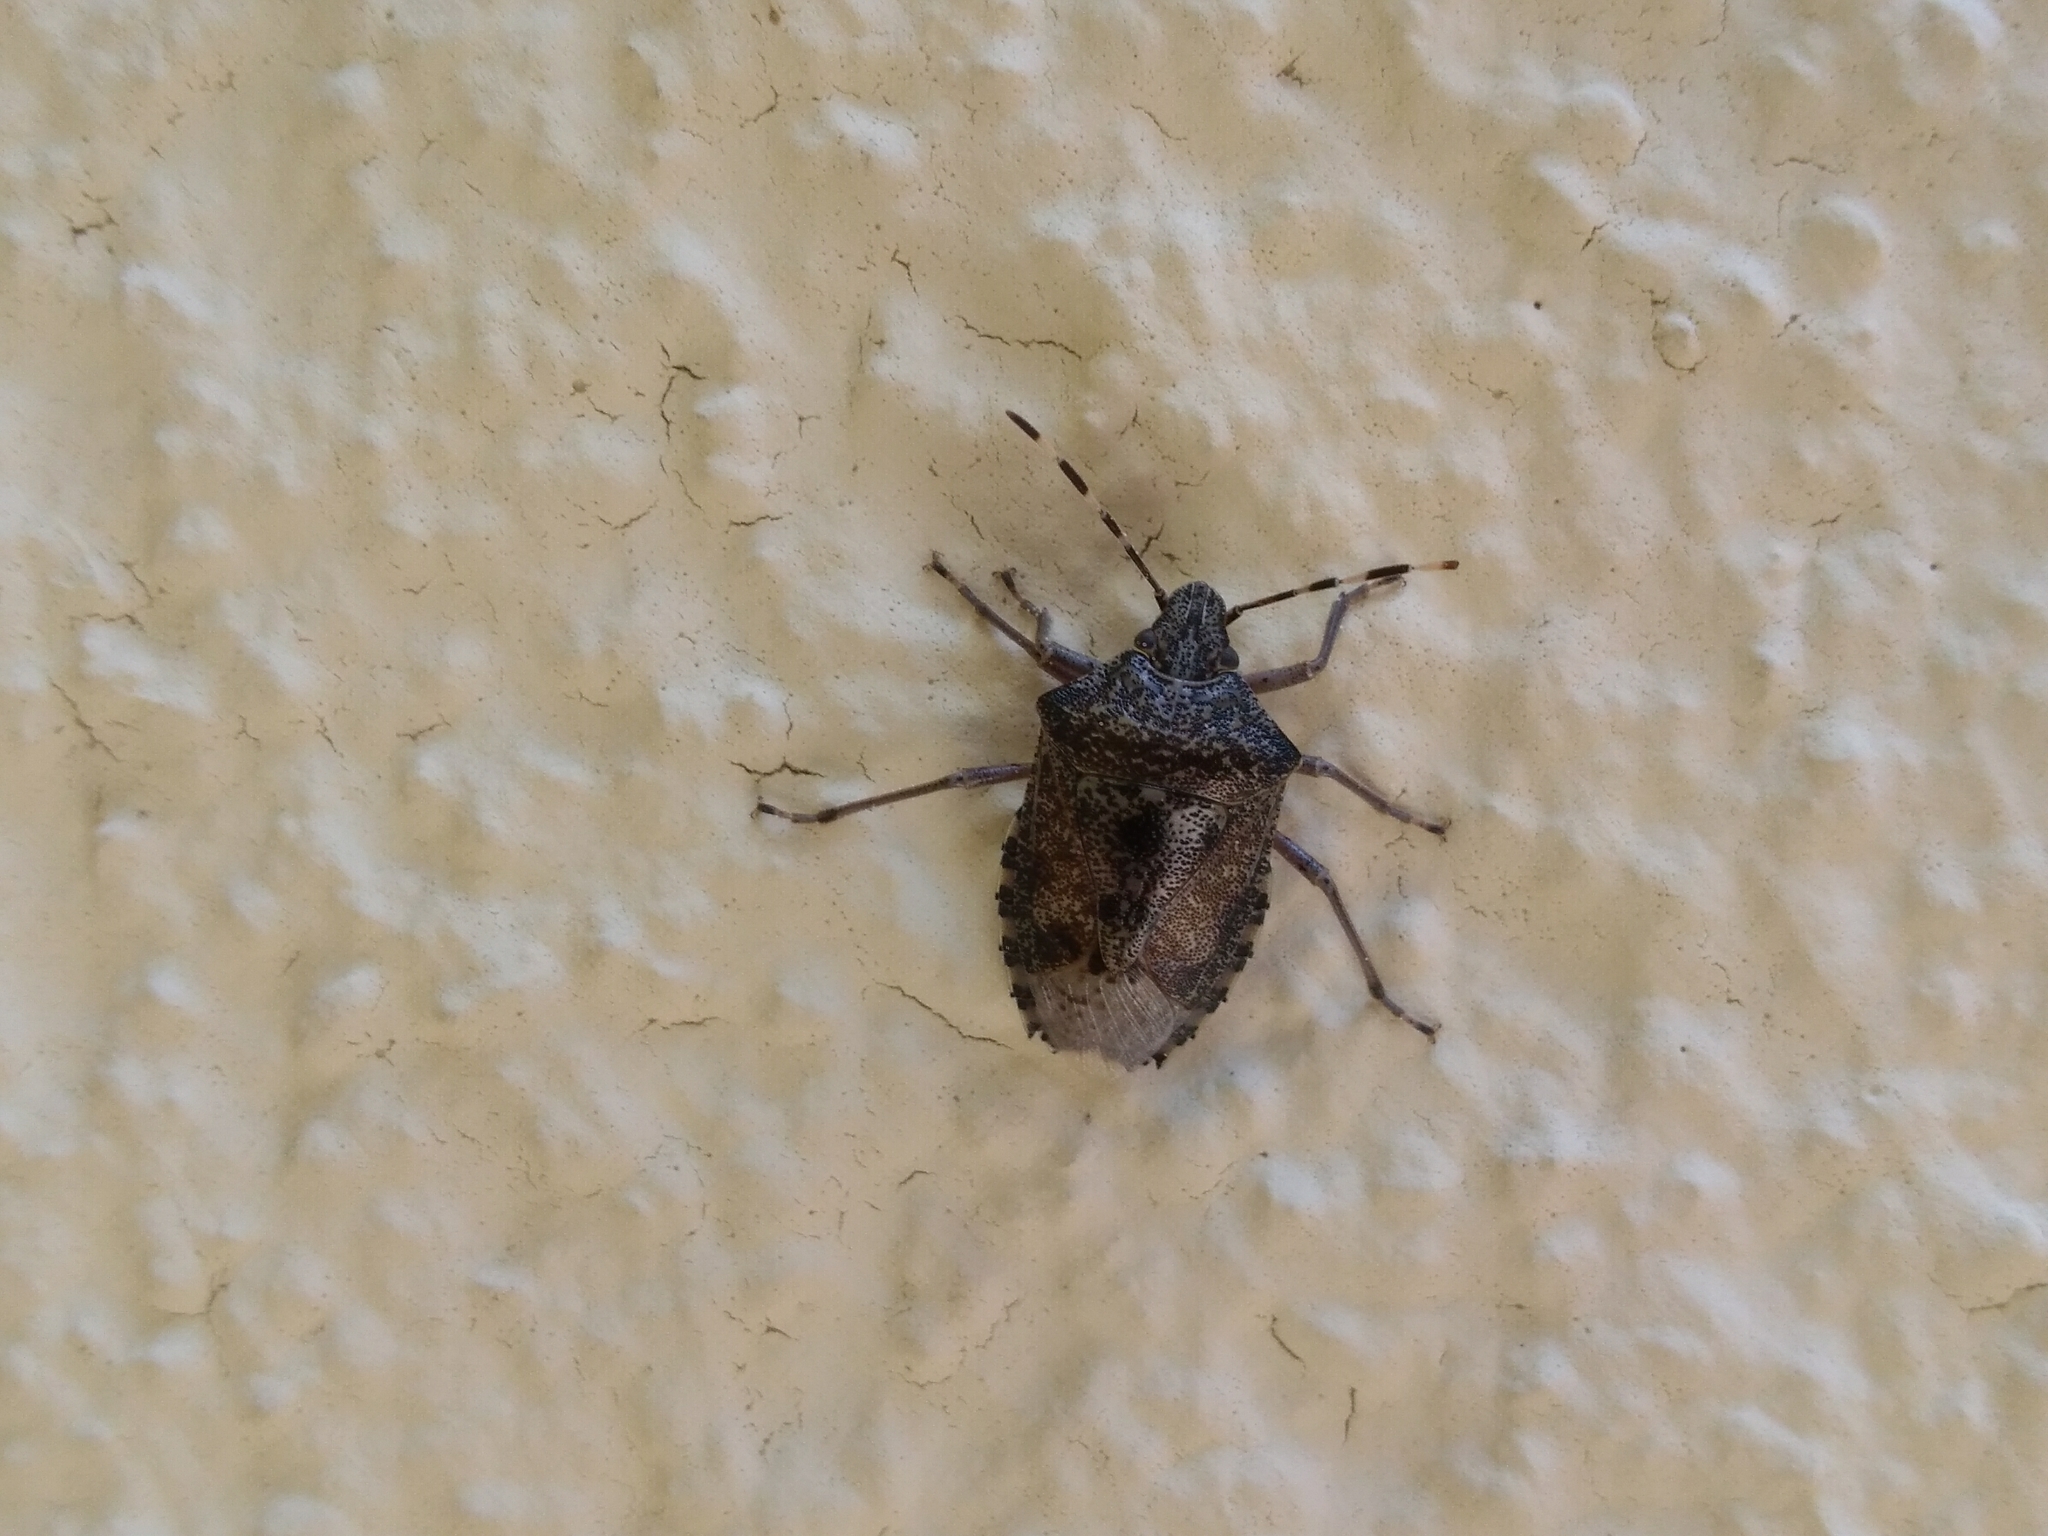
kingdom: Animalia
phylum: Arthropoda
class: Insecta
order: Hemiptera
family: Pentatomidae
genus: Rhaphigaster
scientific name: Rhaphigaster nebulosa
